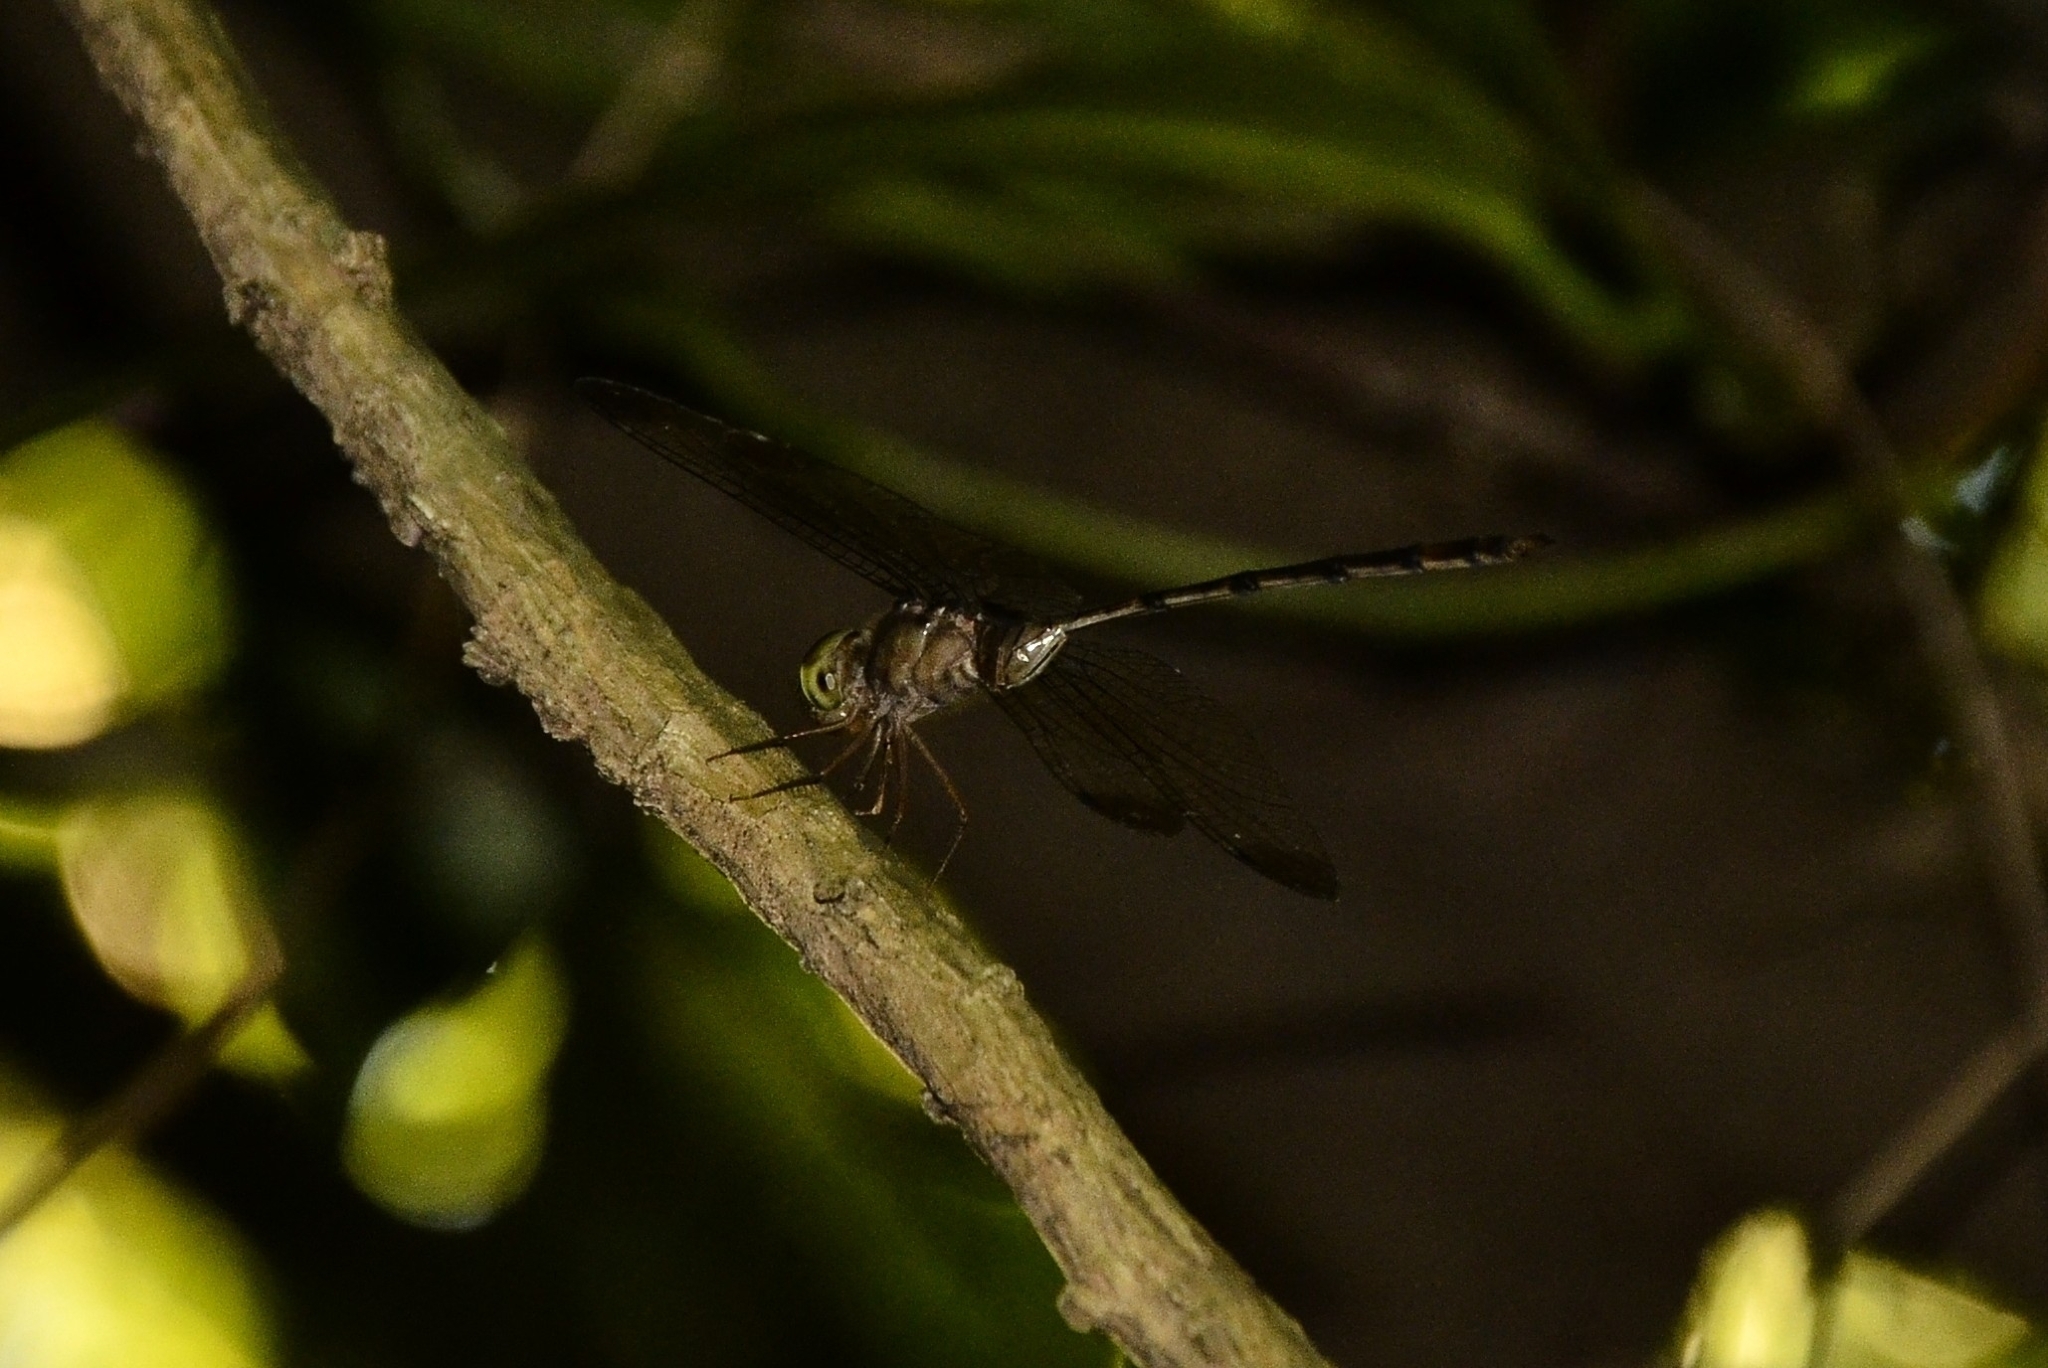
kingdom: Animalia
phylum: Arthropoda
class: Insecta
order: Odonata
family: Libellulidae
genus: Zyxomma
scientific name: Zyxomma petiolatum
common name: Dingy dusk-darter
